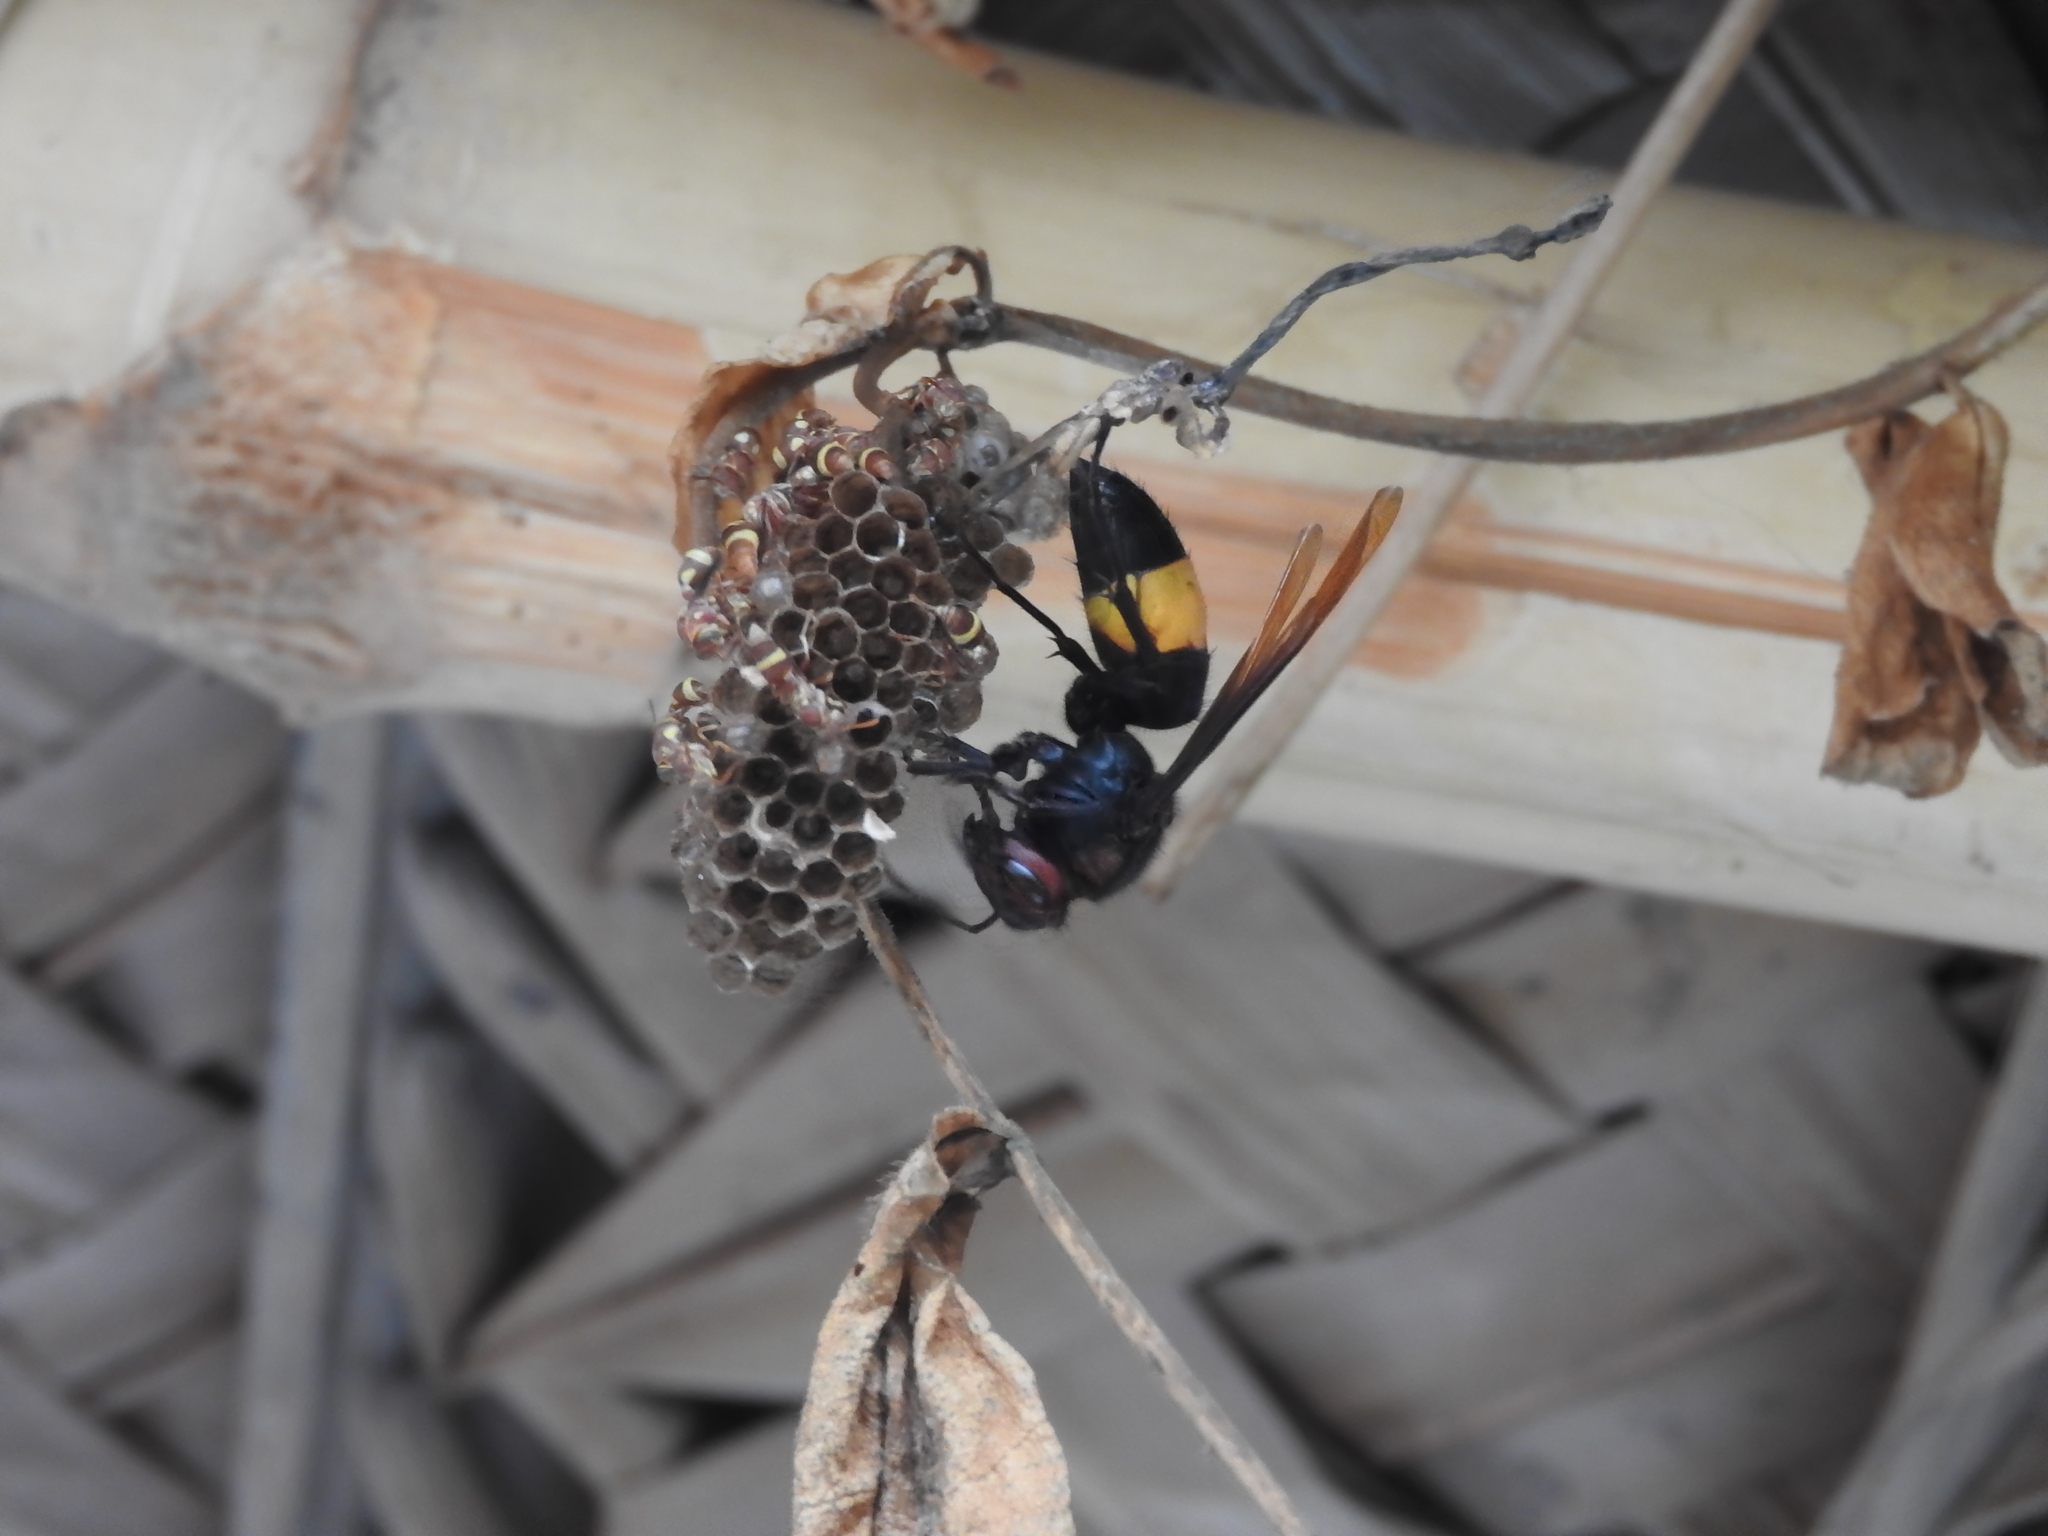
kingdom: Animalia
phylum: Arthropoda
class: Insecta
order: Hymenoptera
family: Vespidae
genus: Vespa
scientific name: Vespa tropica
